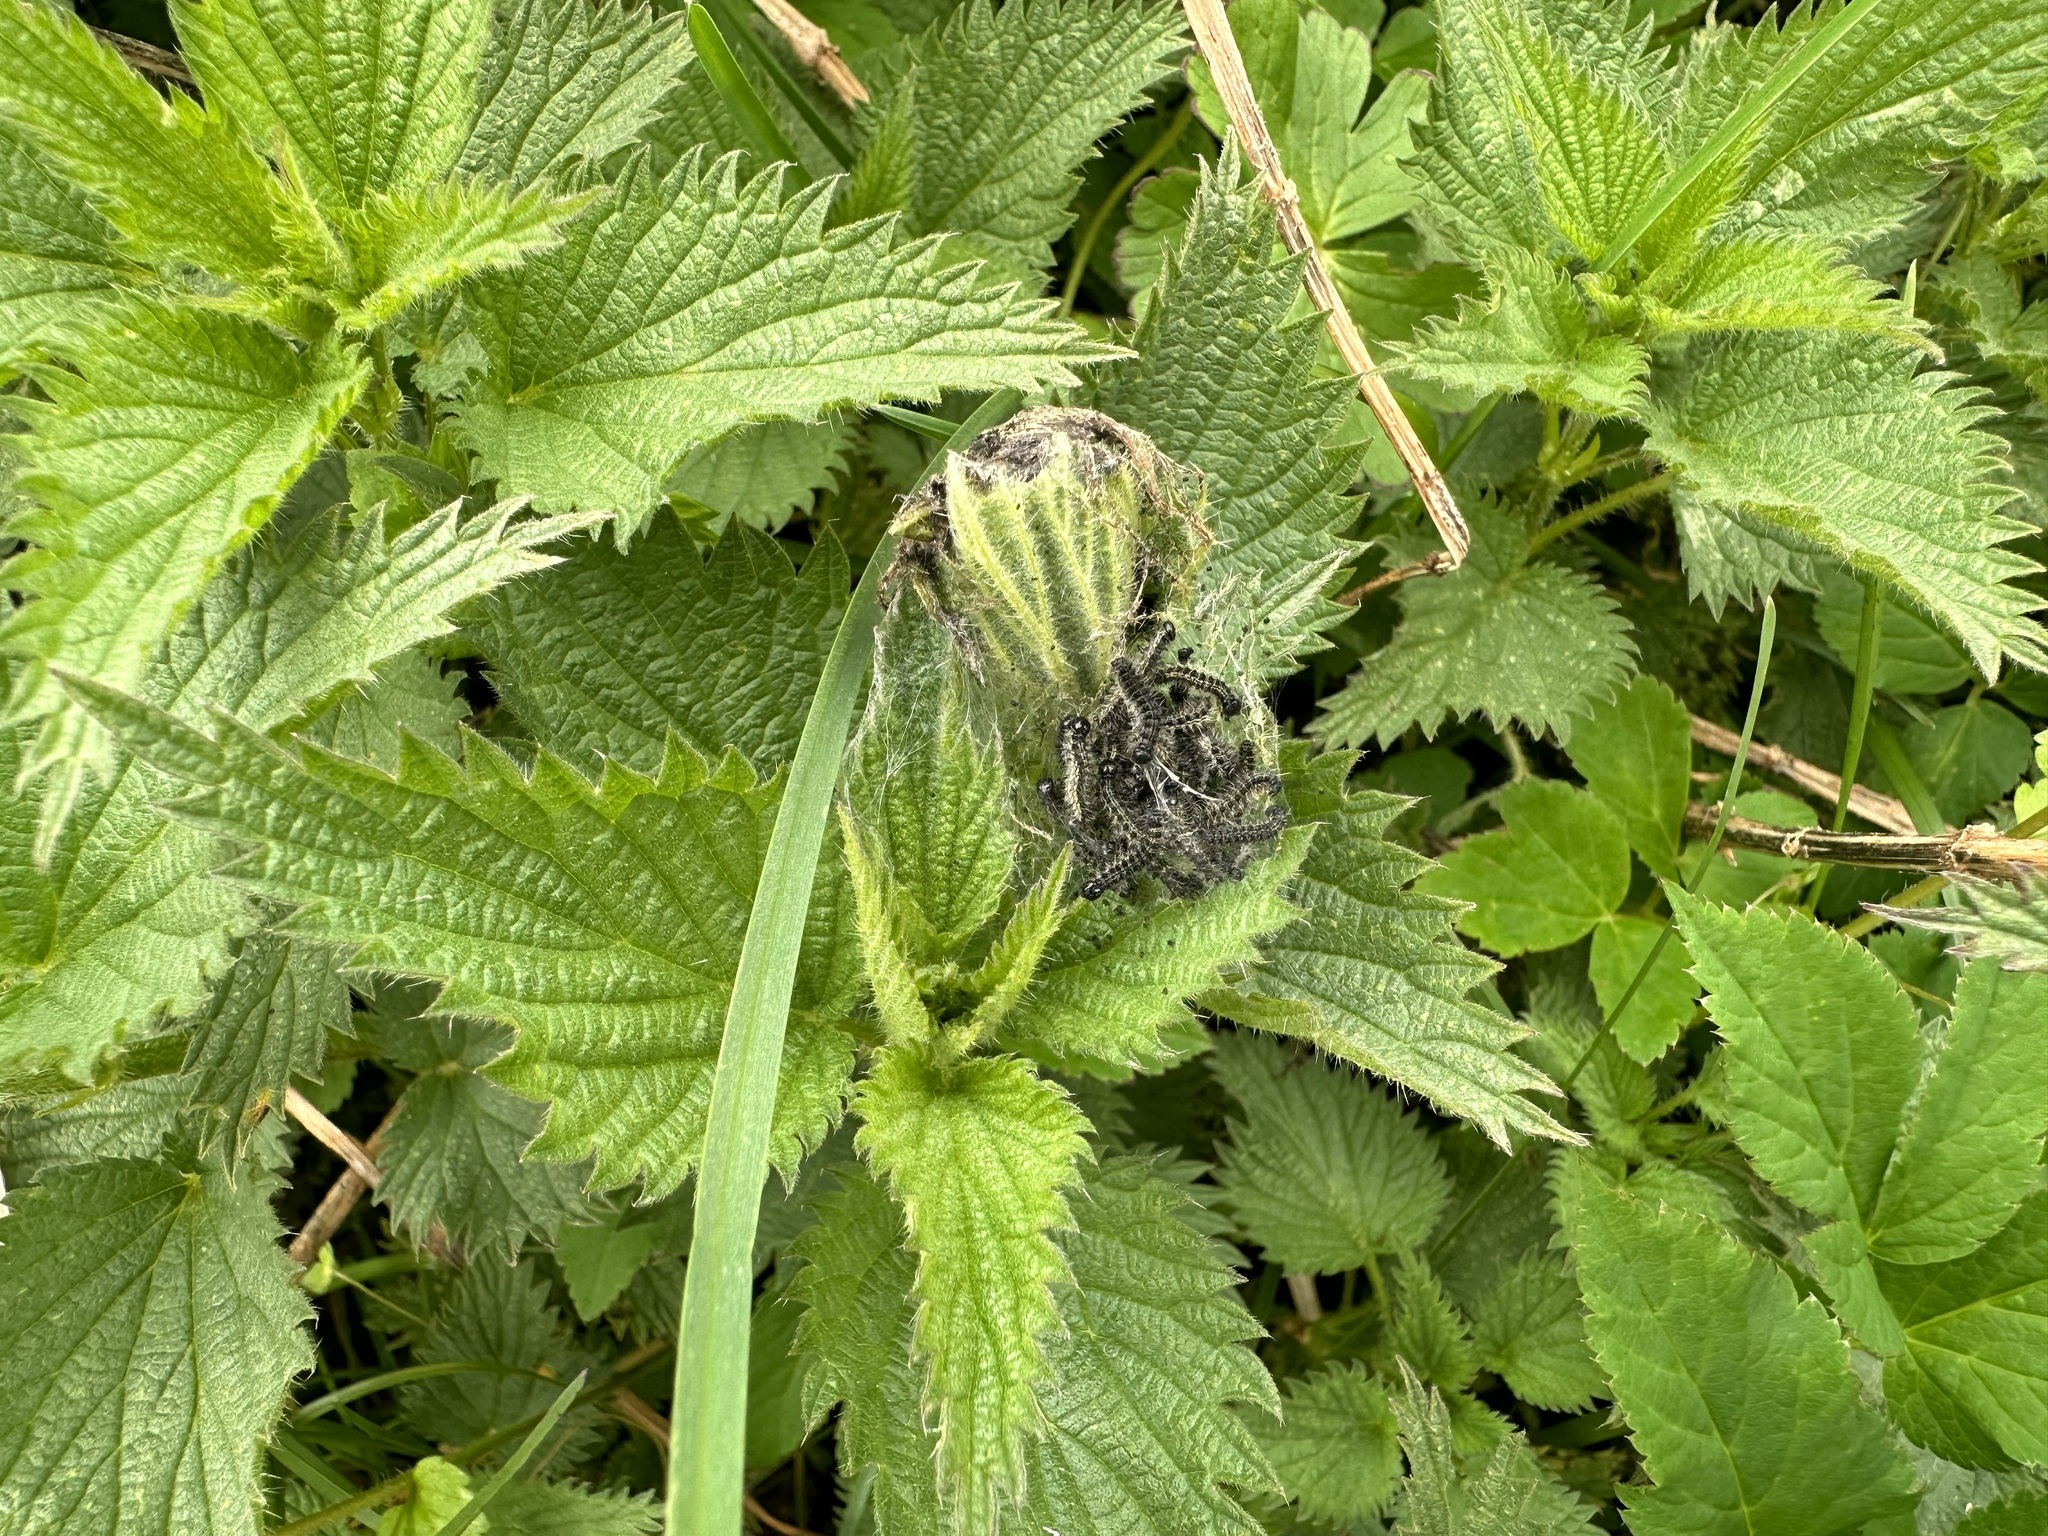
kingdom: Plantae
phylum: Tracheophyta
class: Magnoliopsida
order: Rosales
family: Urticaceae
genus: Urtica
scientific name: Urtica dioica
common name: Common nettle
